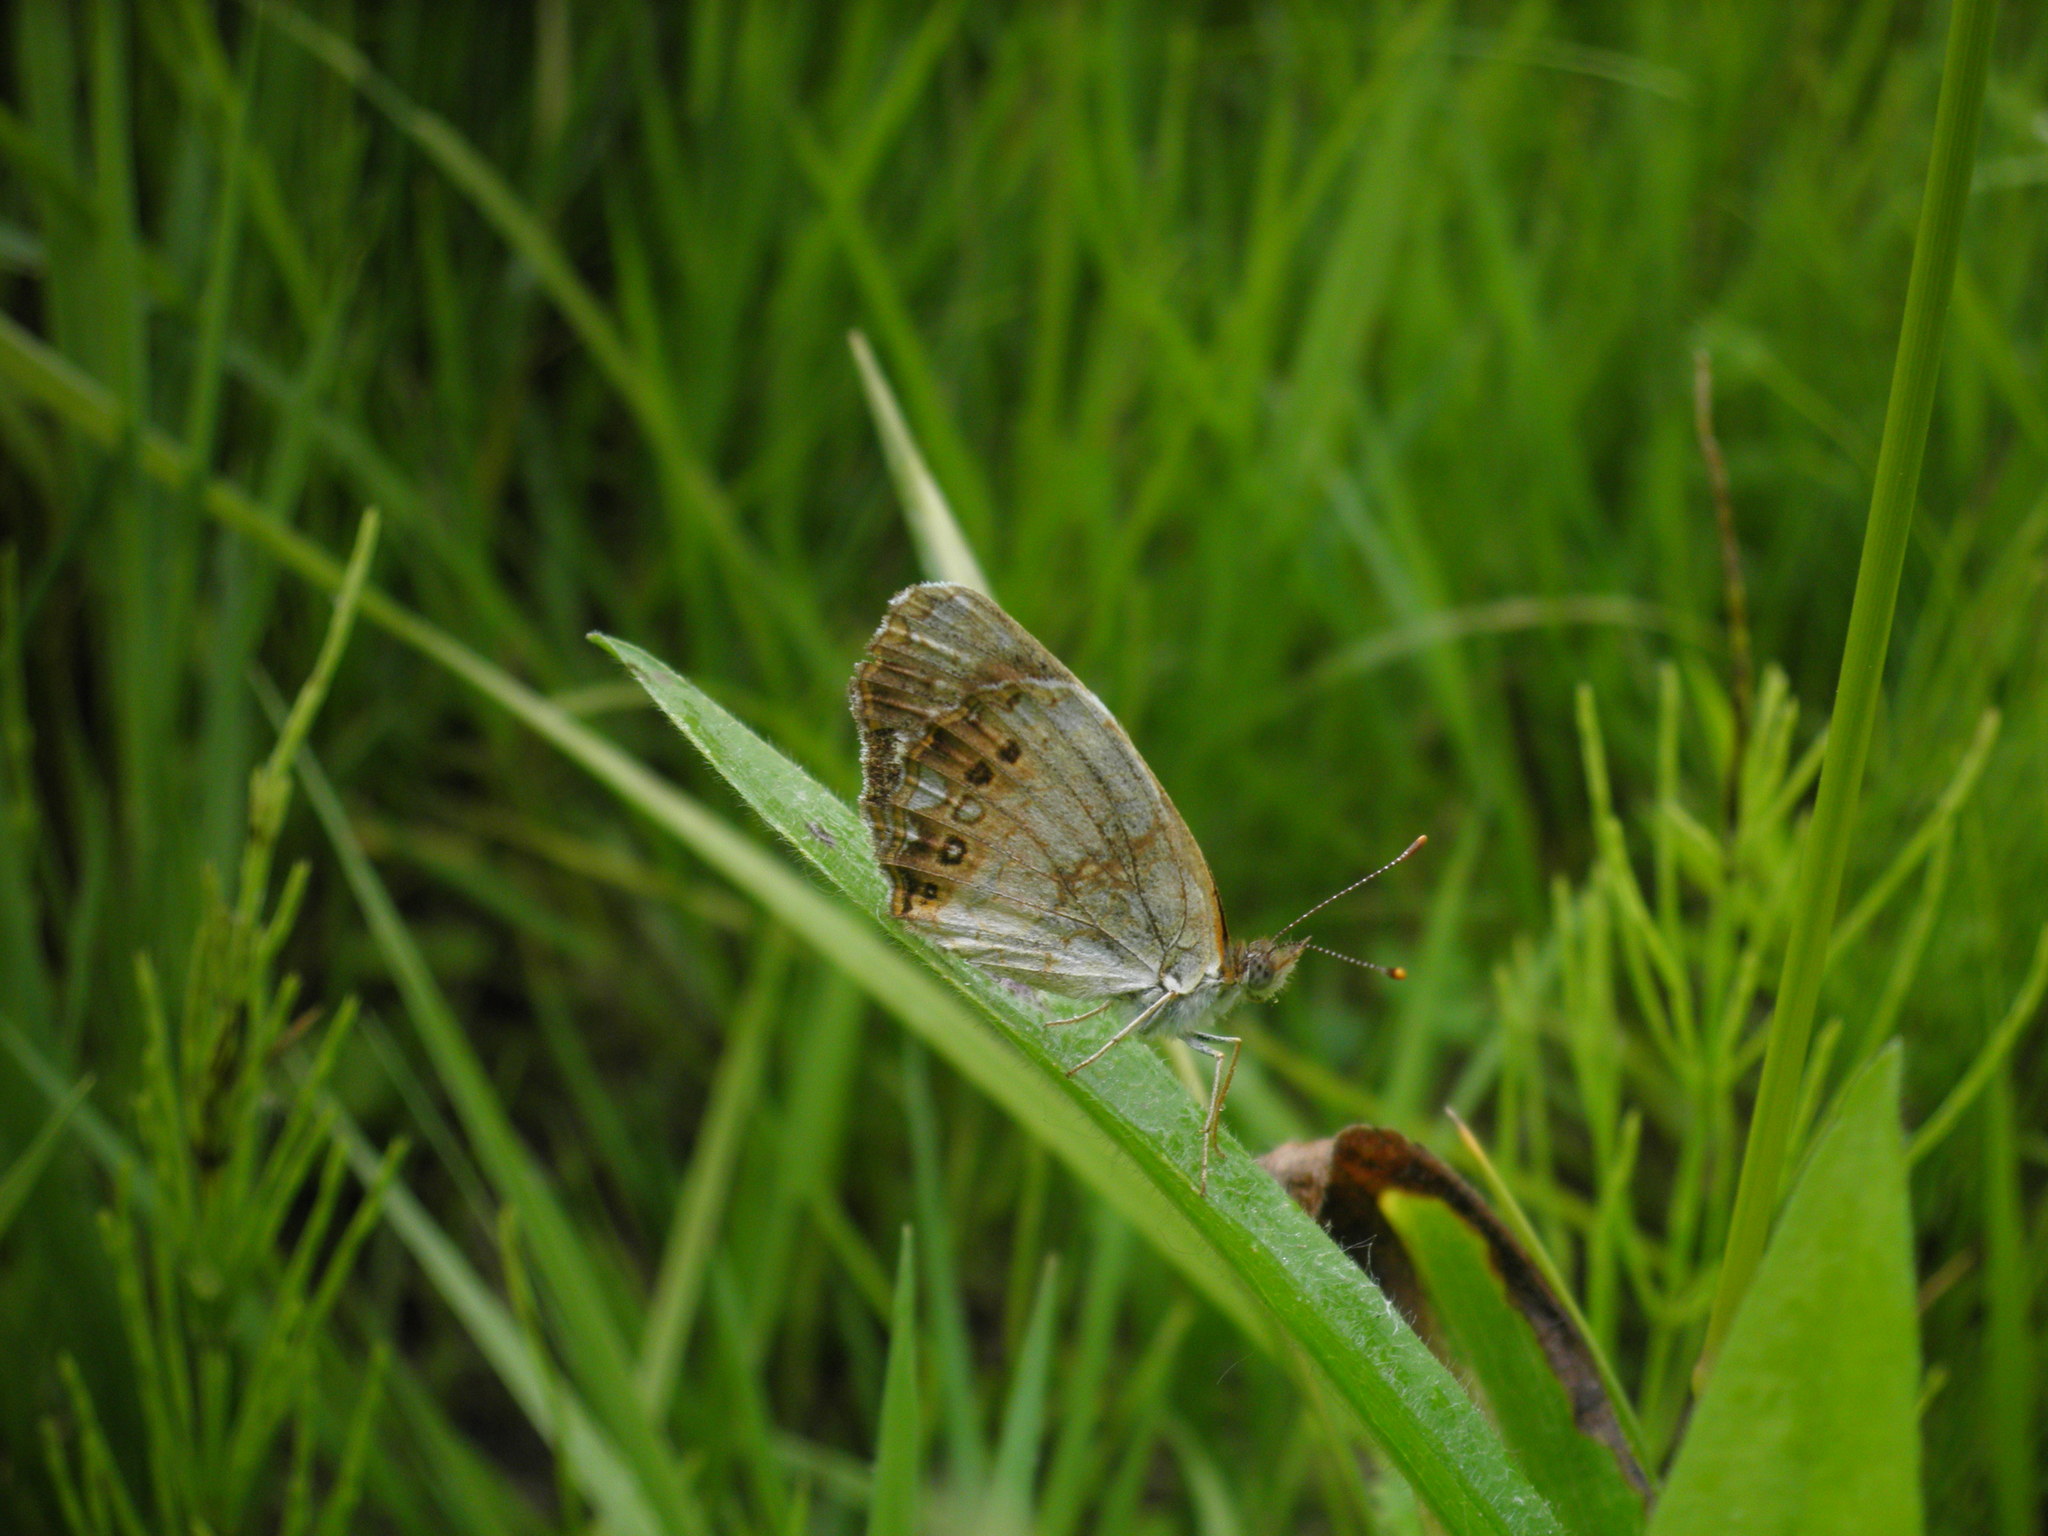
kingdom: Animalia
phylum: Arthropoda
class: Insecta
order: Lepidoptera
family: Nymphalidae
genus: Chlosyne
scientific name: Chlosyne nycteis
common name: Silvery checkerspot
